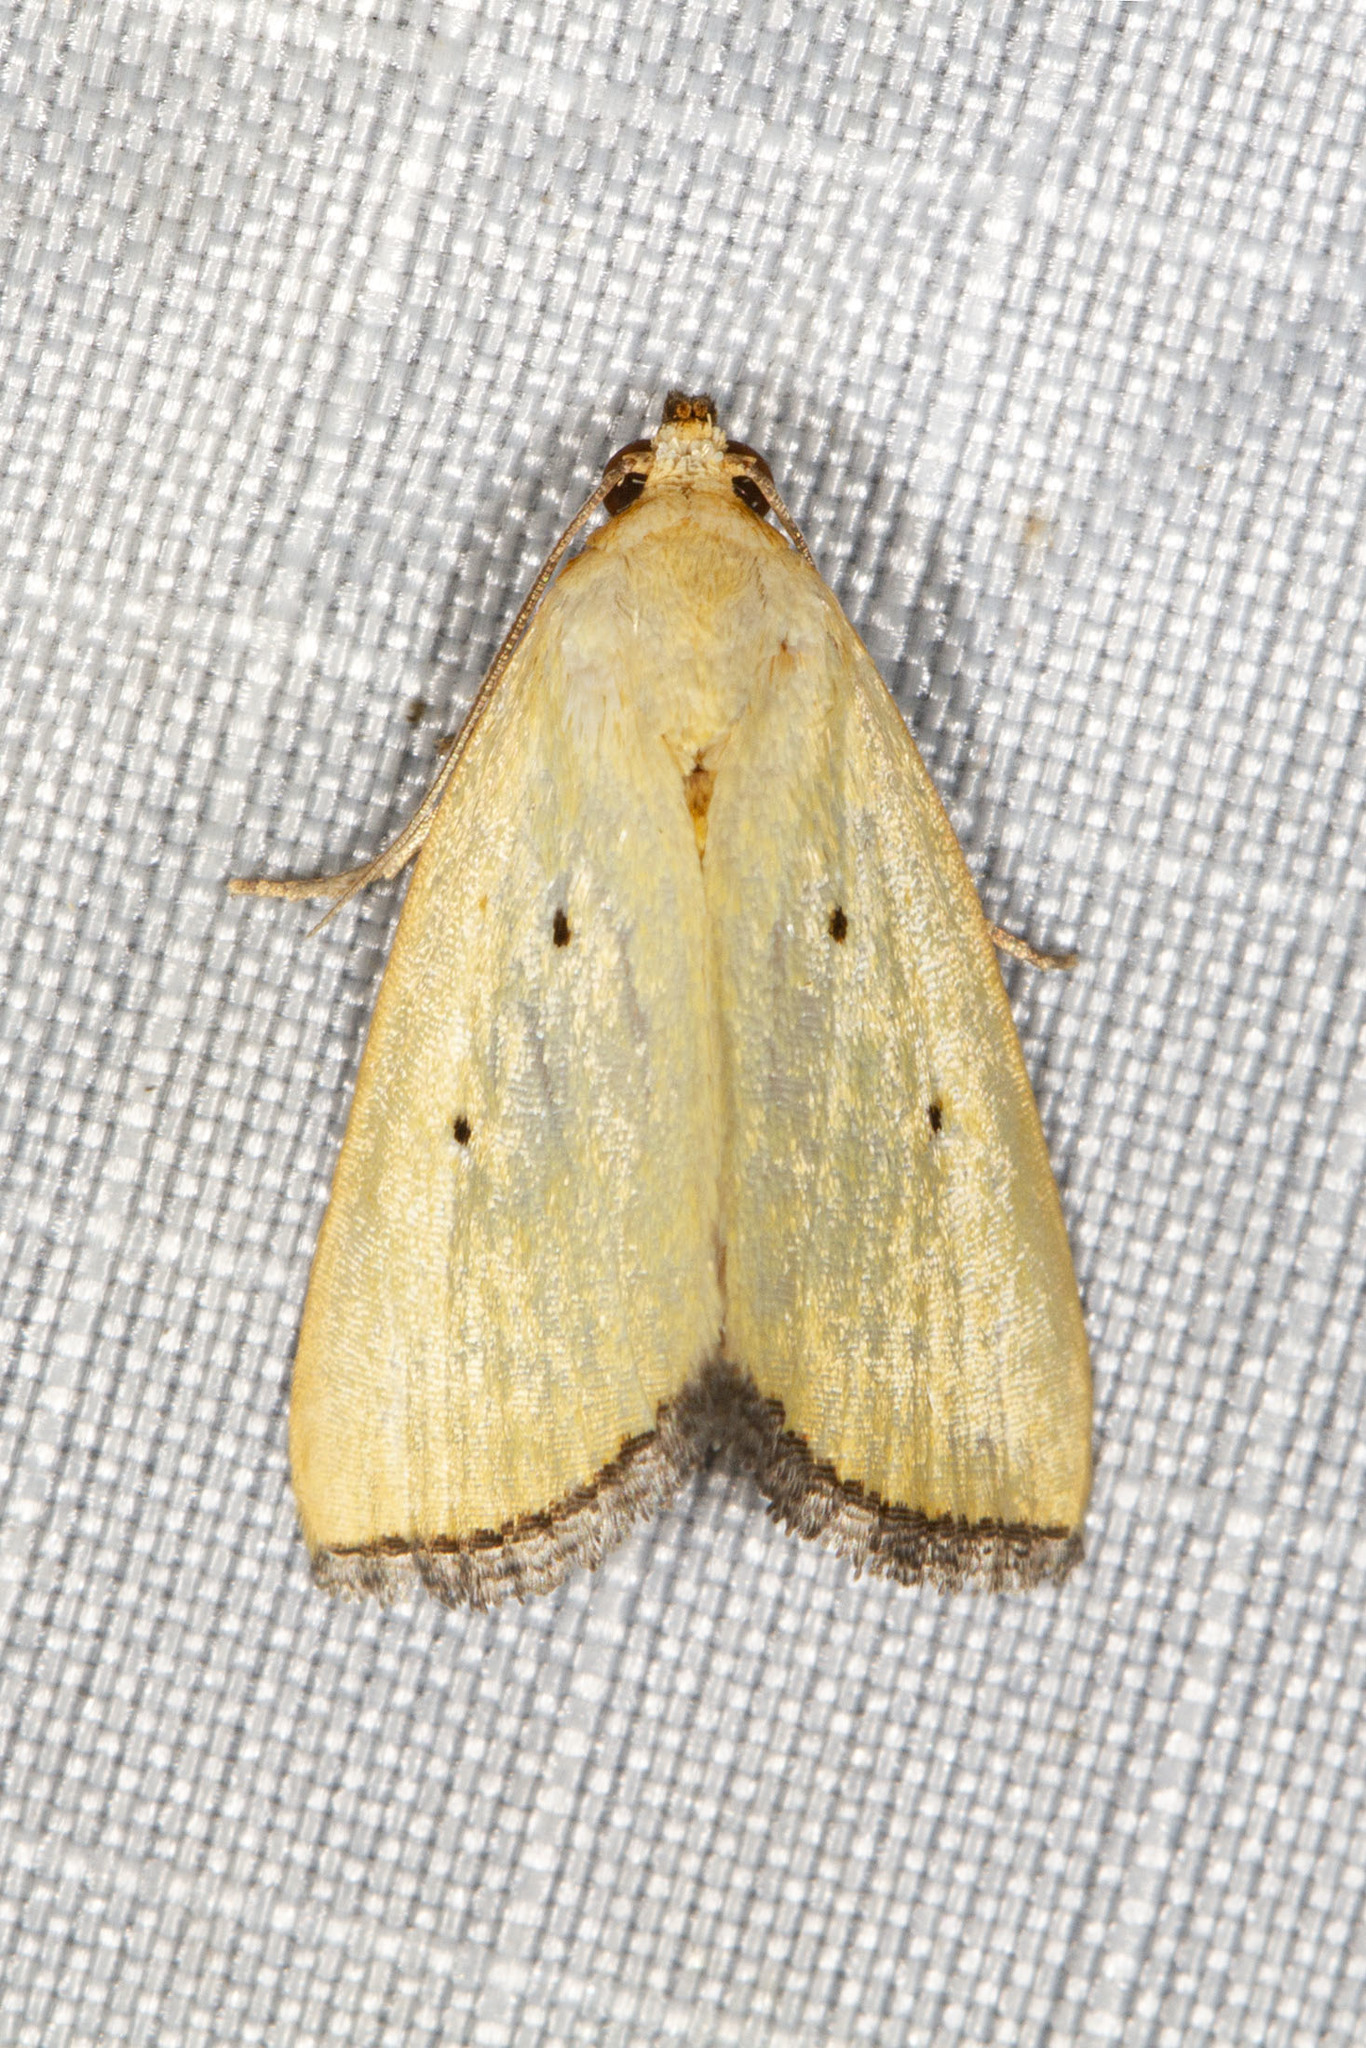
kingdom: Animalia
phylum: Arthropoda
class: Insecta
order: Lepidoptera
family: Noctuidae
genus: Marimatha
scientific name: Marimatha nigrofimbria
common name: Black-bordered lemon moth
